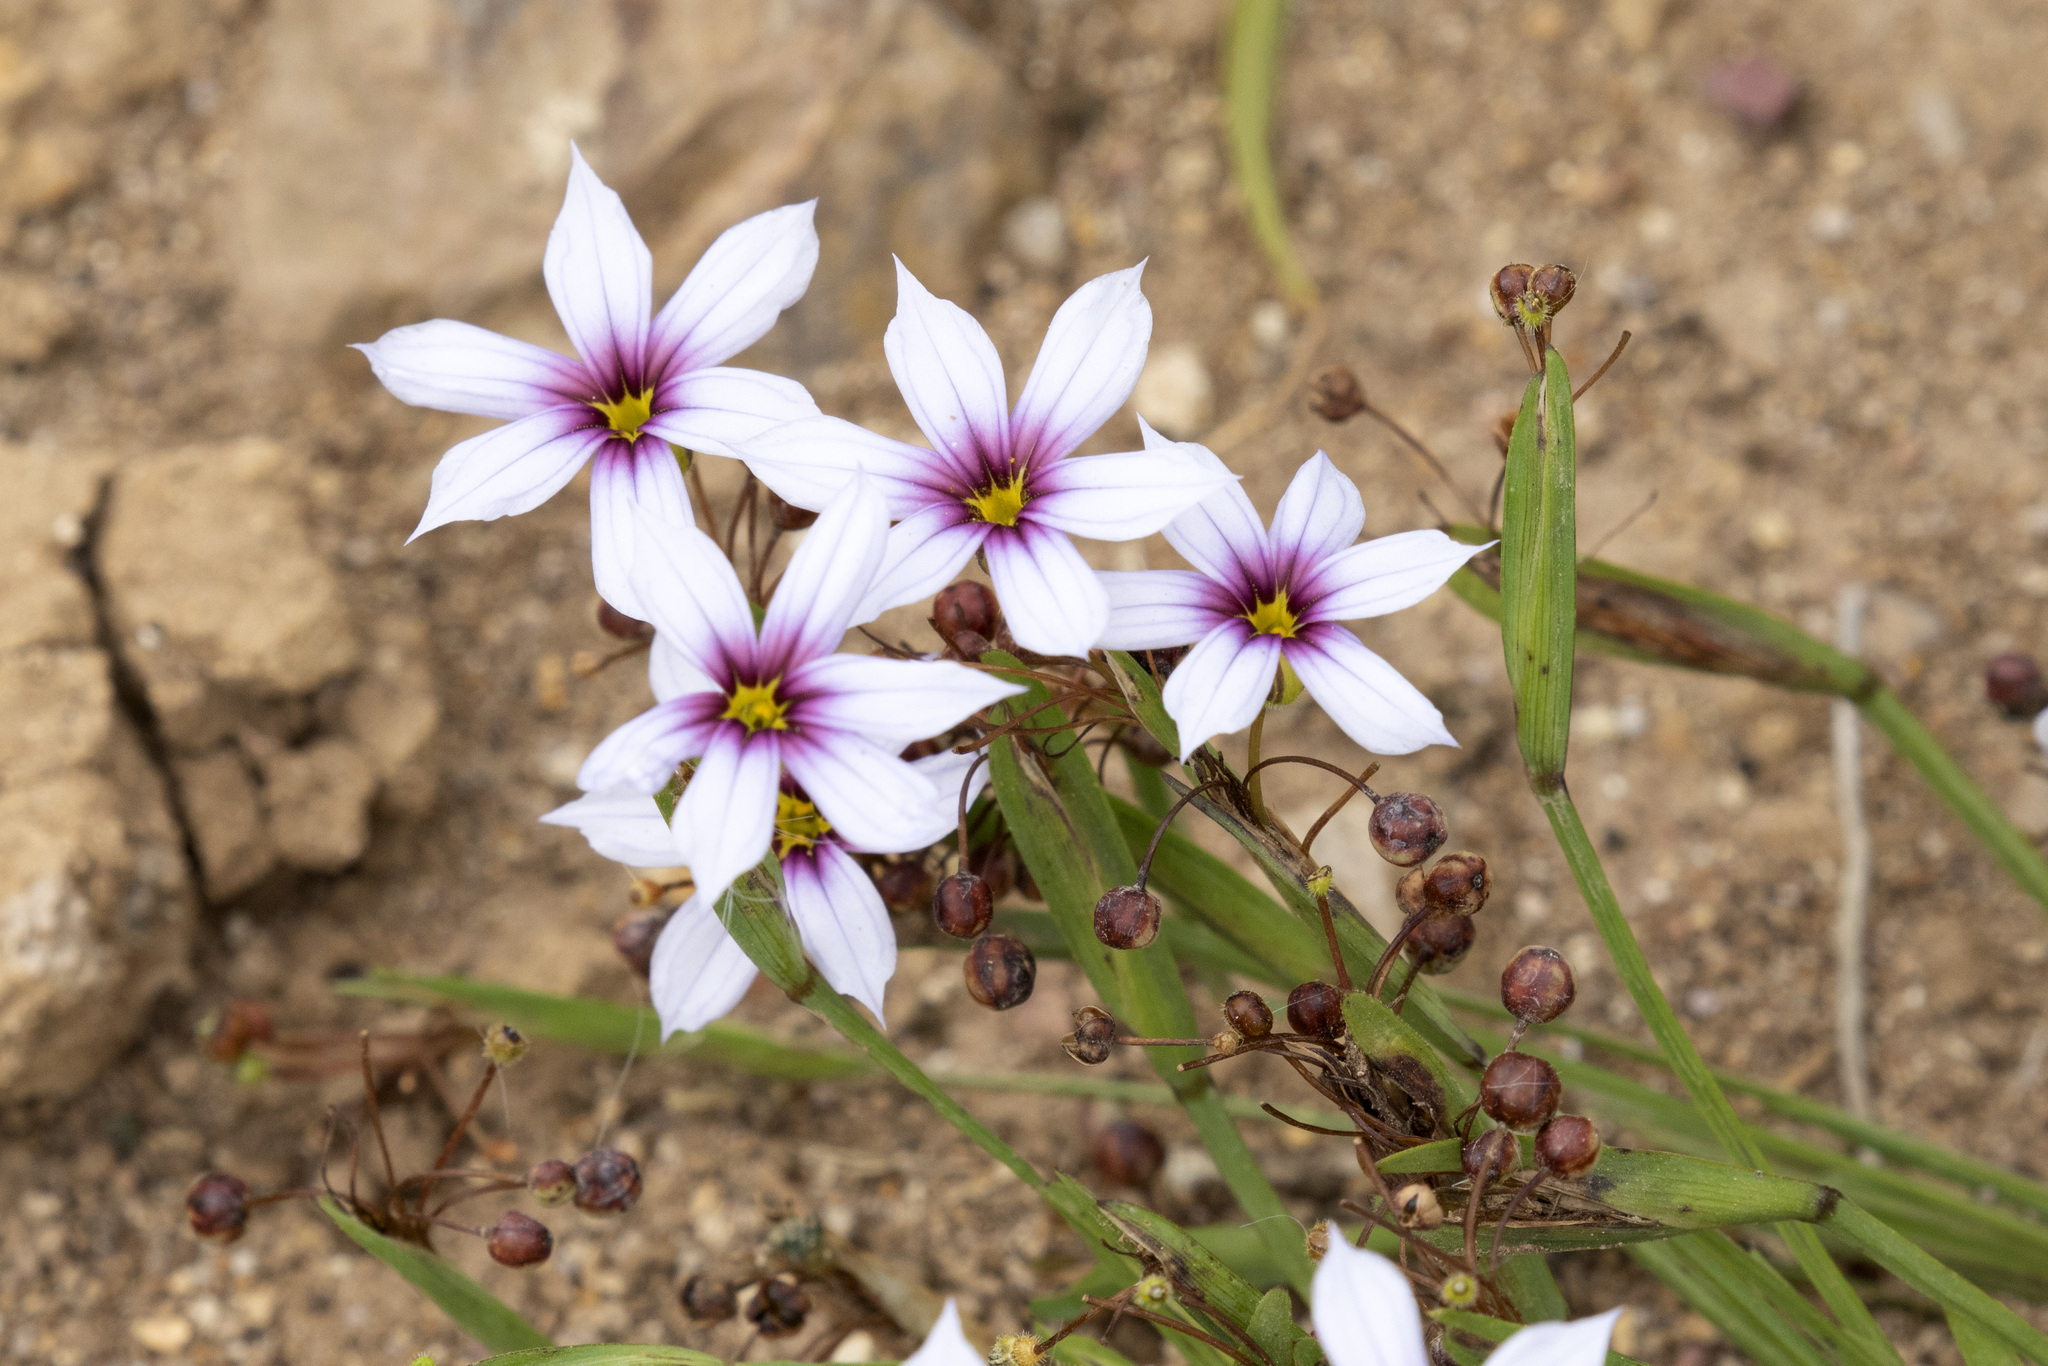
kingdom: Plantae
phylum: Tracheophyta
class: Liliopsida
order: Asparagales
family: Iridaceae
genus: Sisyrinchium
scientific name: Sisyrinchium micranthum
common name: Bermuda pigroot
